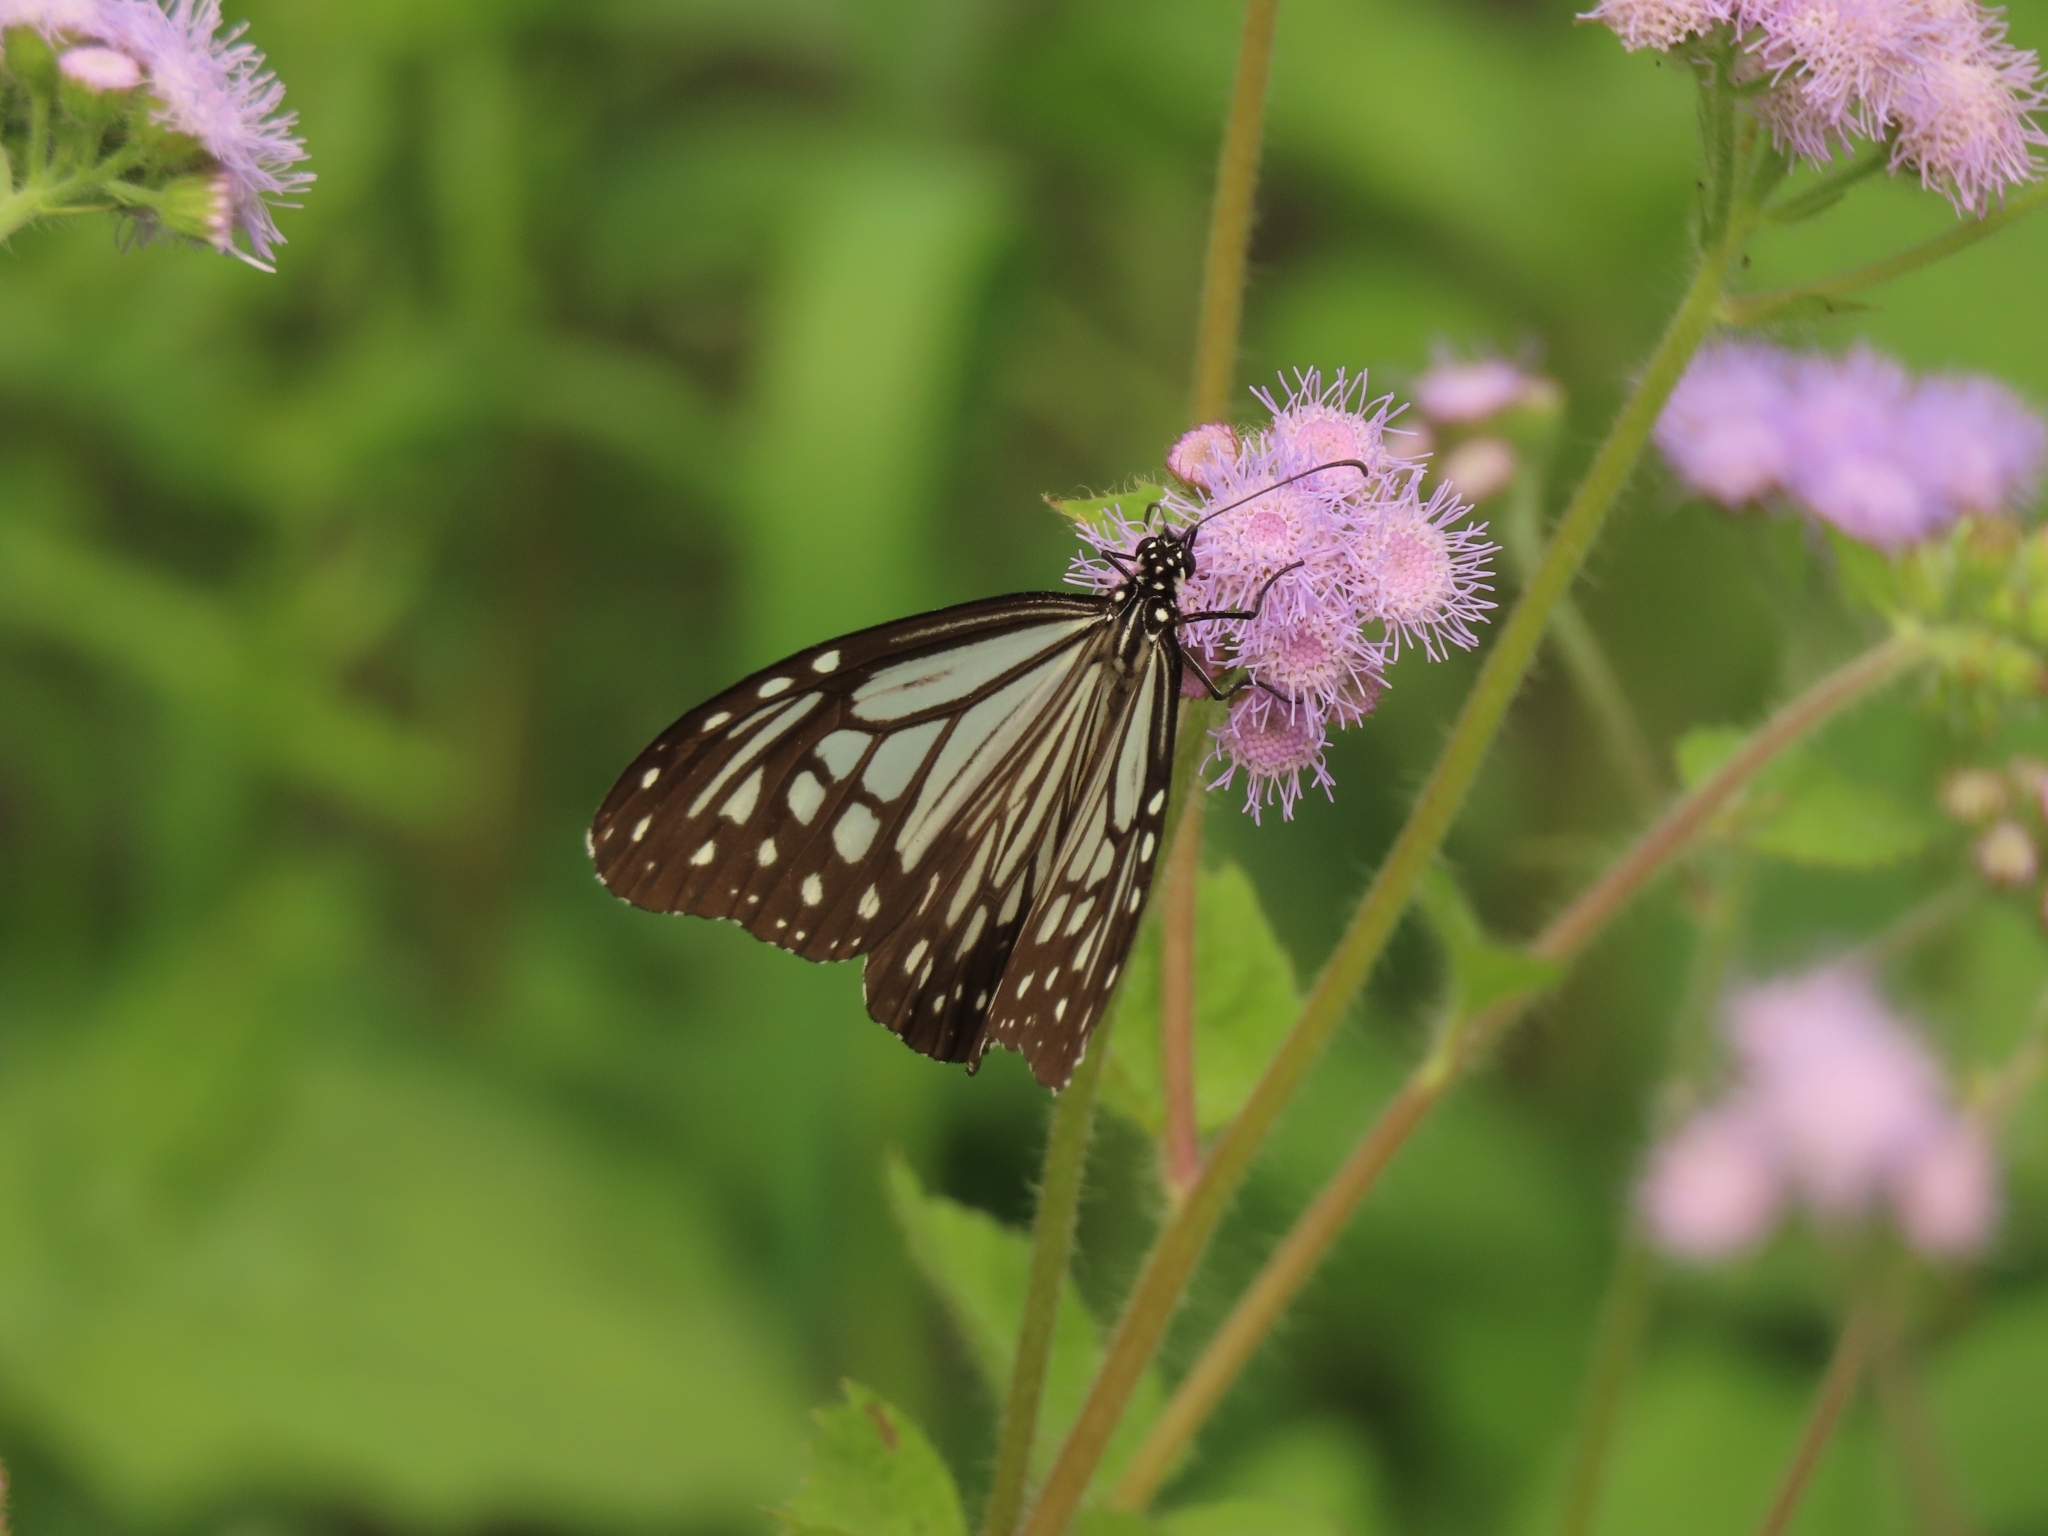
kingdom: Animalia
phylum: Arthropoda
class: Insecta
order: Lepidoptera
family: Nymphalidae
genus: Parantica
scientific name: Parantica aglea
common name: Glassy tiger
